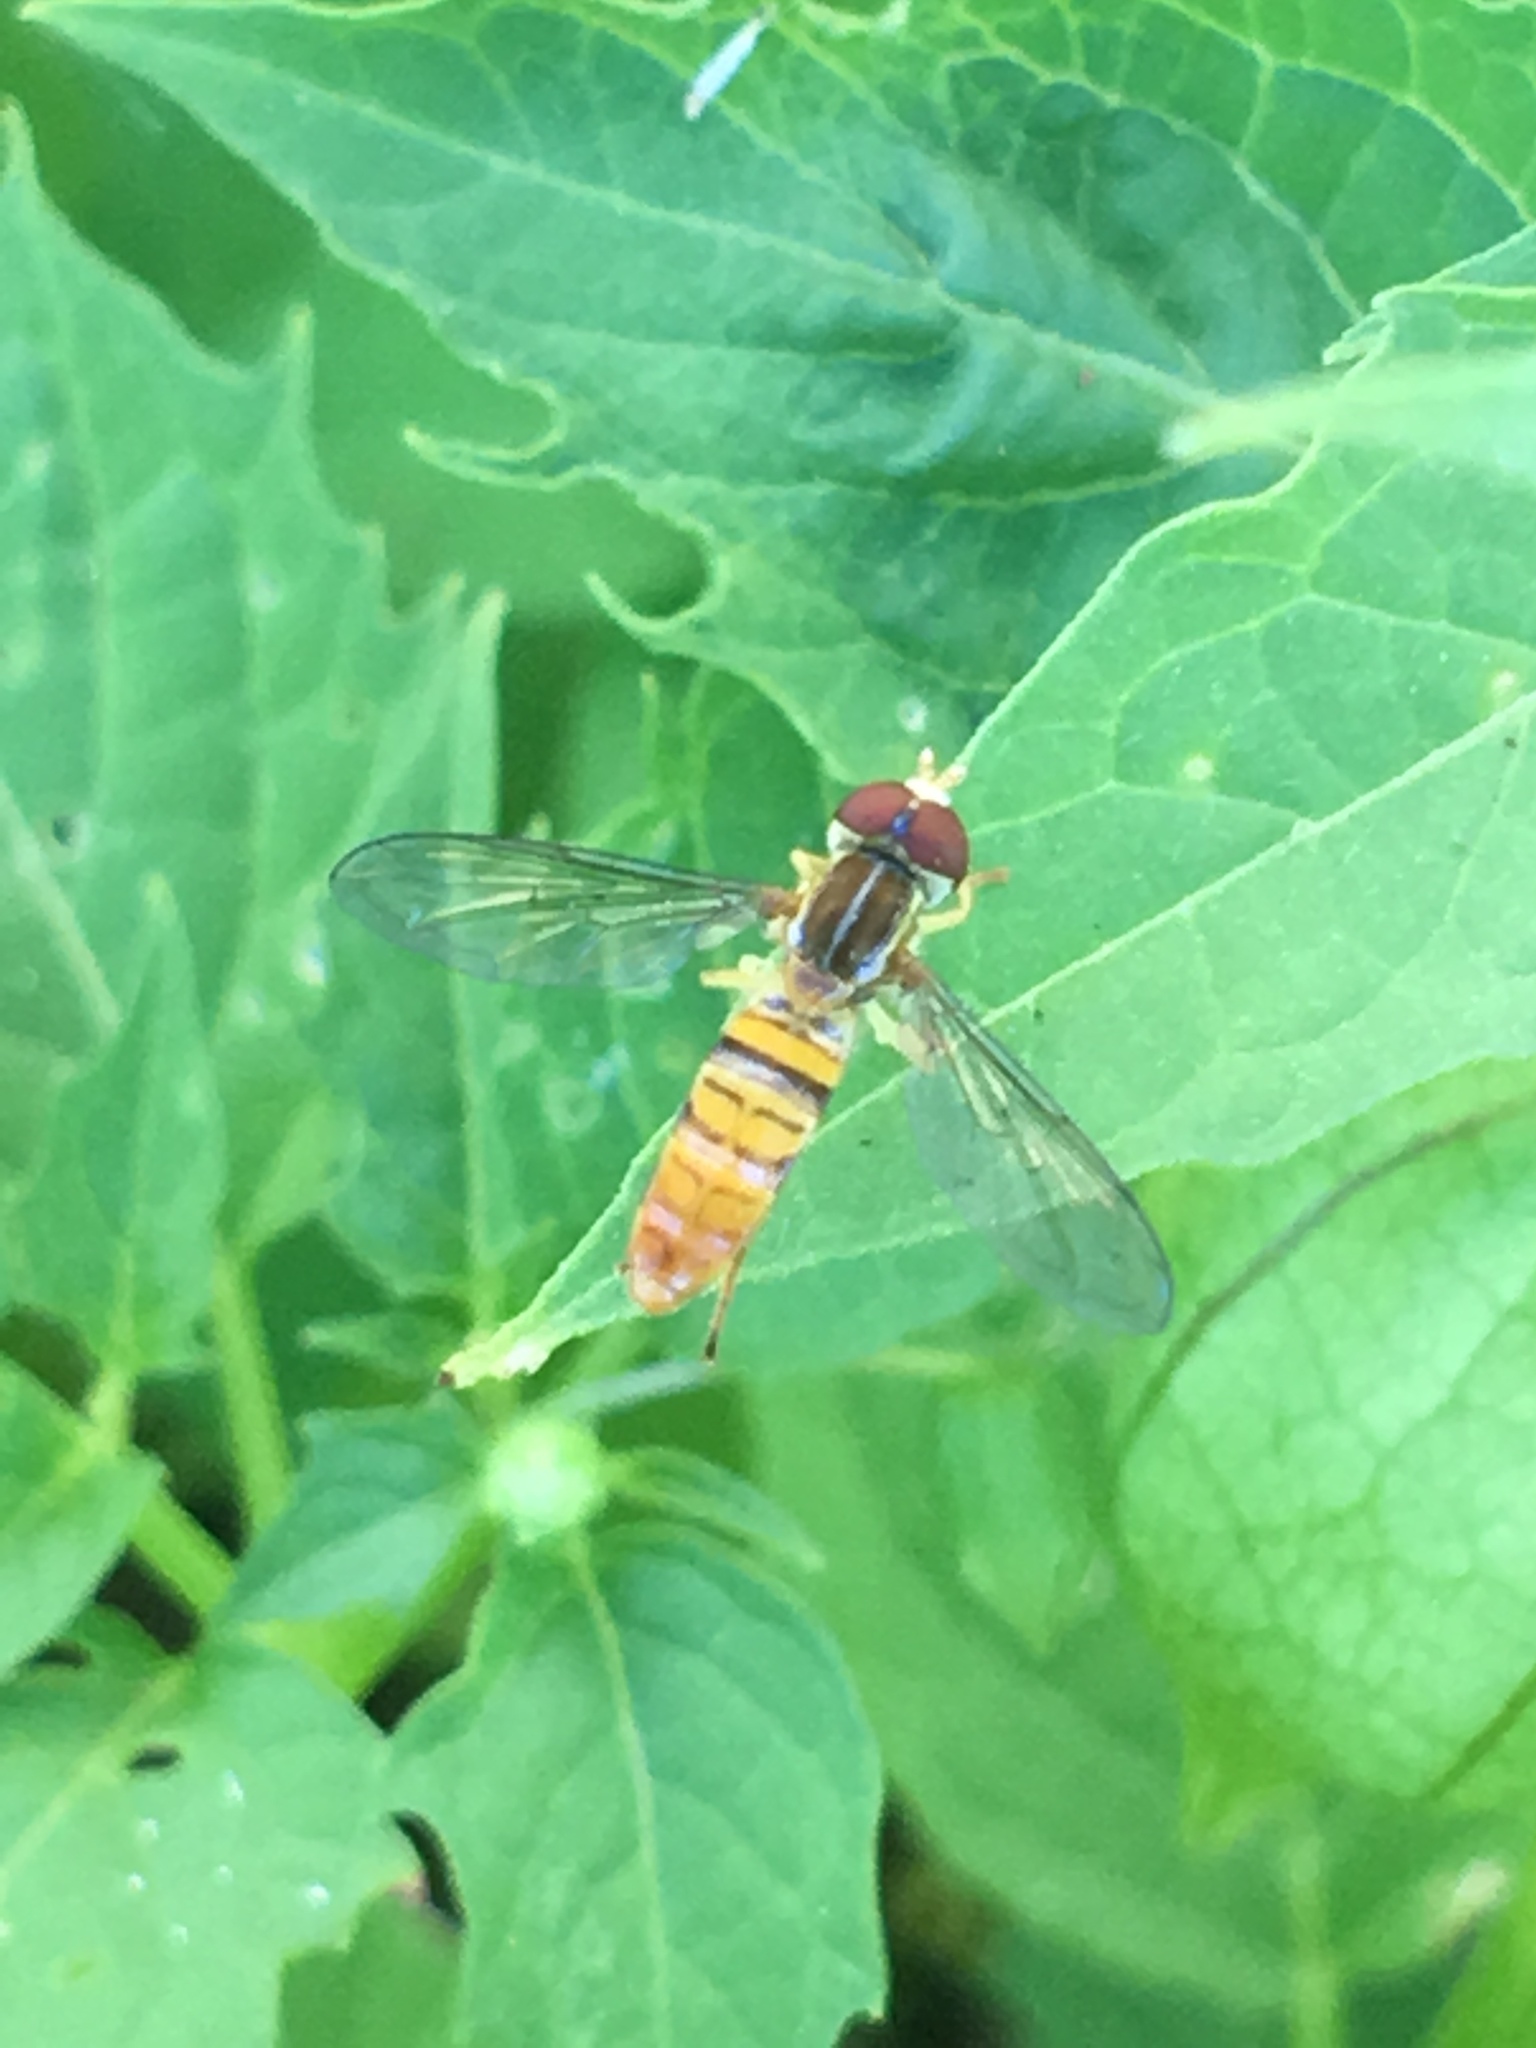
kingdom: Animalia
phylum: Arthropoda
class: Insecta
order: Diptera
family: Syrphidae
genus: Toxomerus
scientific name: Toxomerus politus
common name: Maize calligrapher
